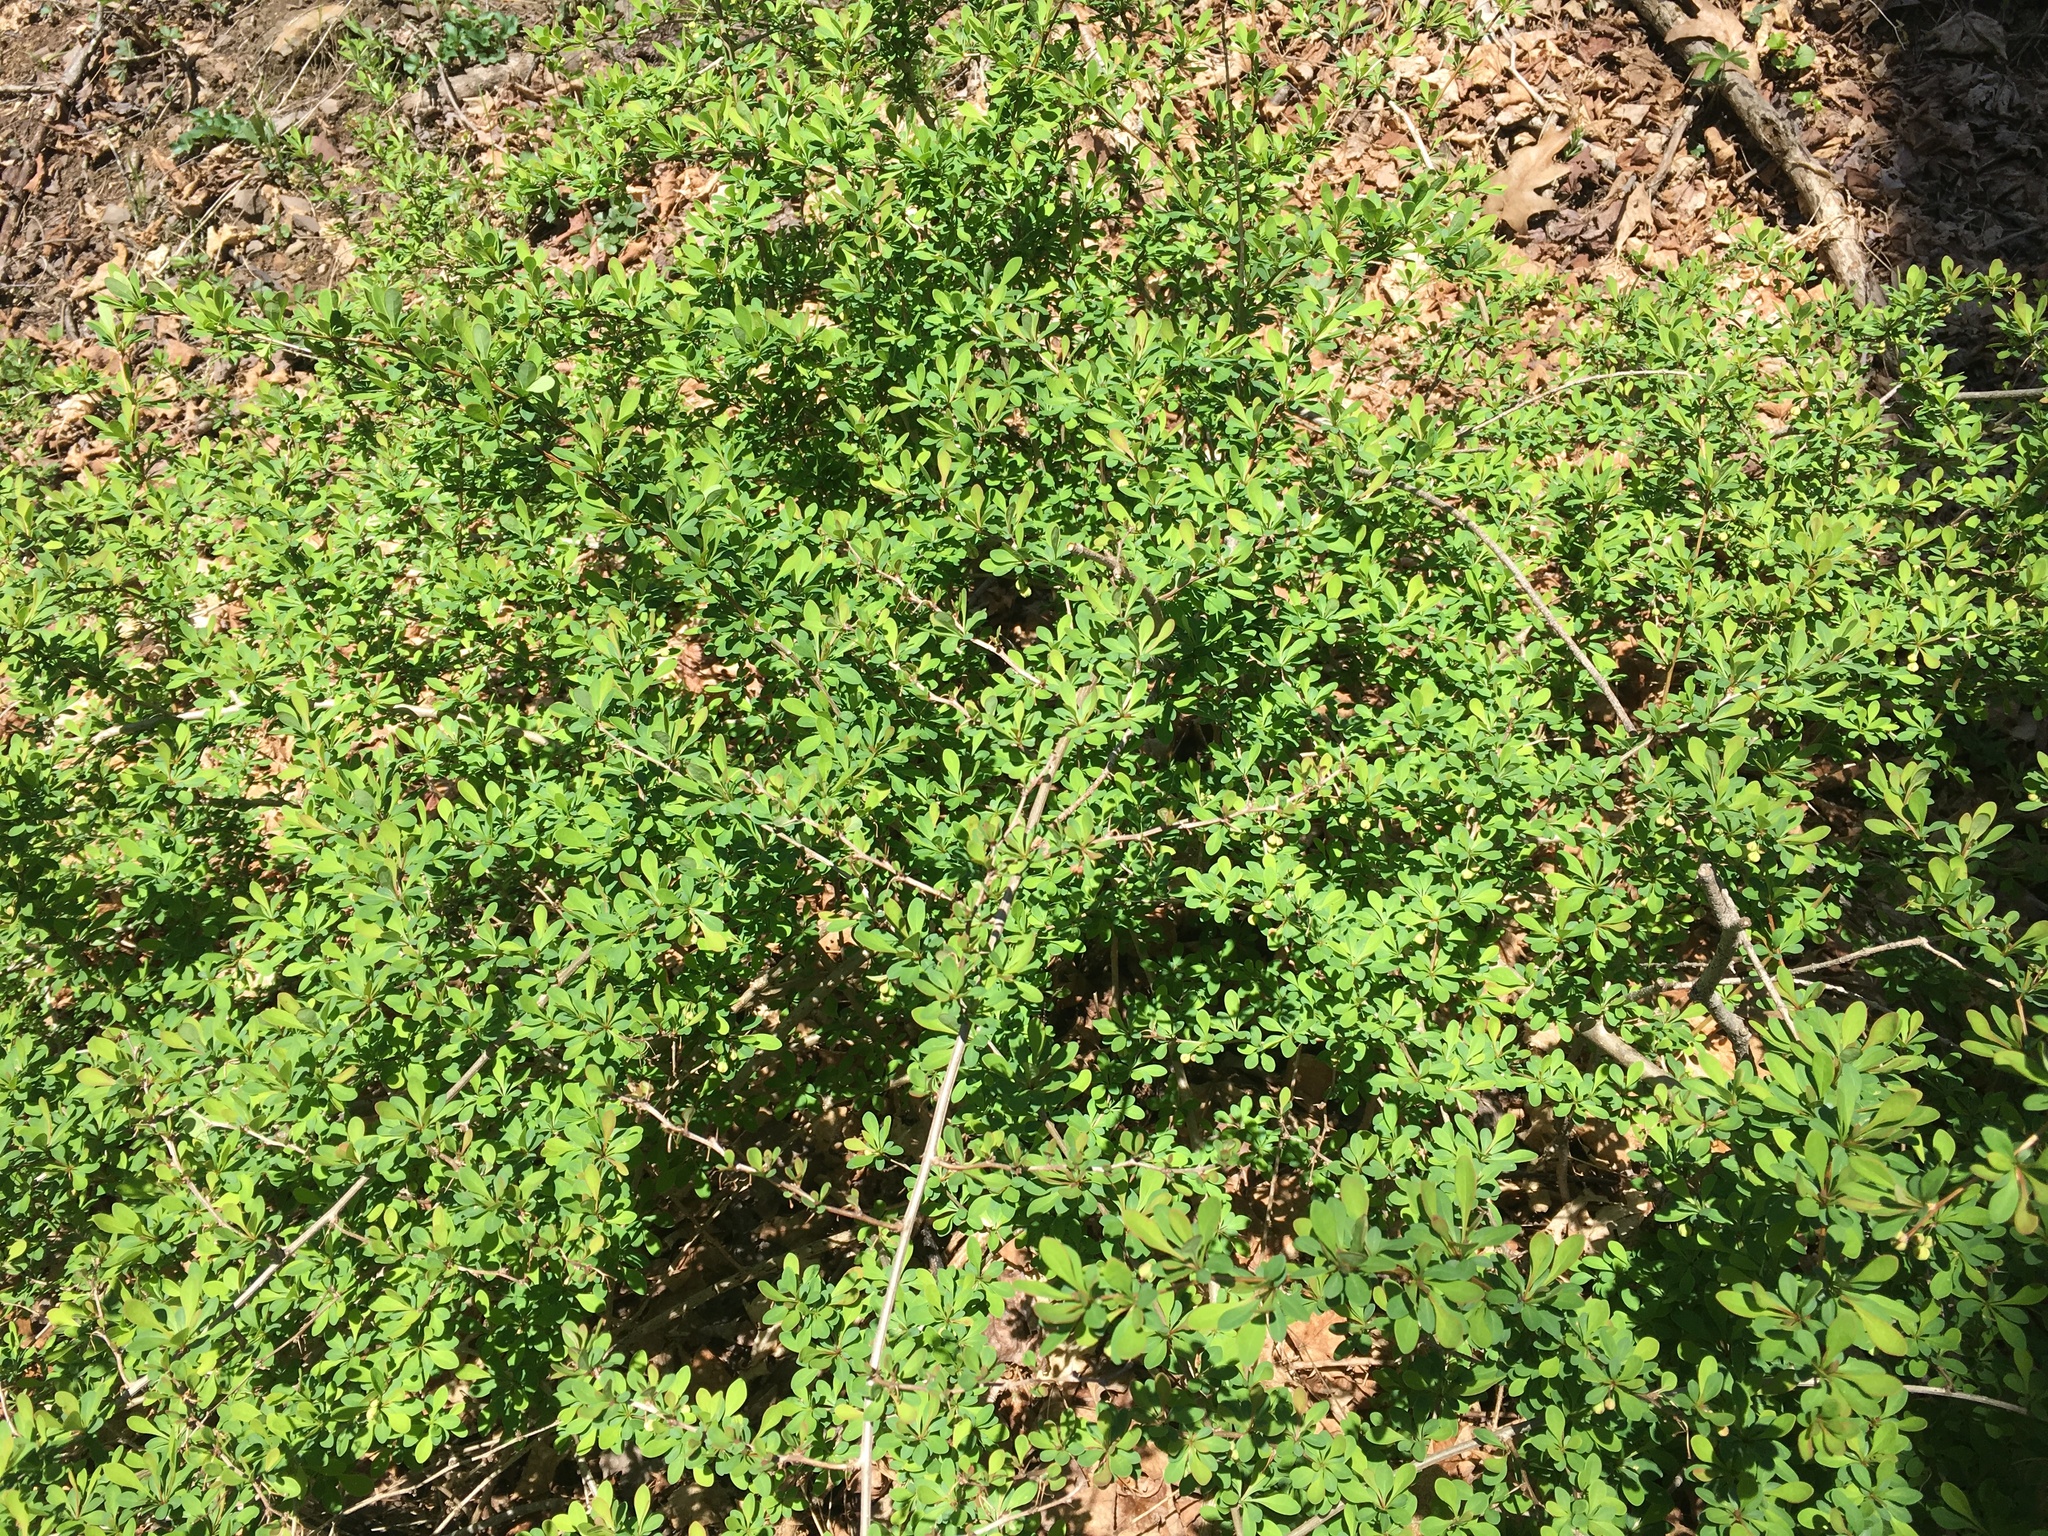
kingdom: Plantae
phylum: Tracheophyta
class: Magnoliopsida
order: Ranunculales
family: Berberidaceae
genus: Berberis
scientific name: Berberis thunbergii
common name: Japanese barberry
